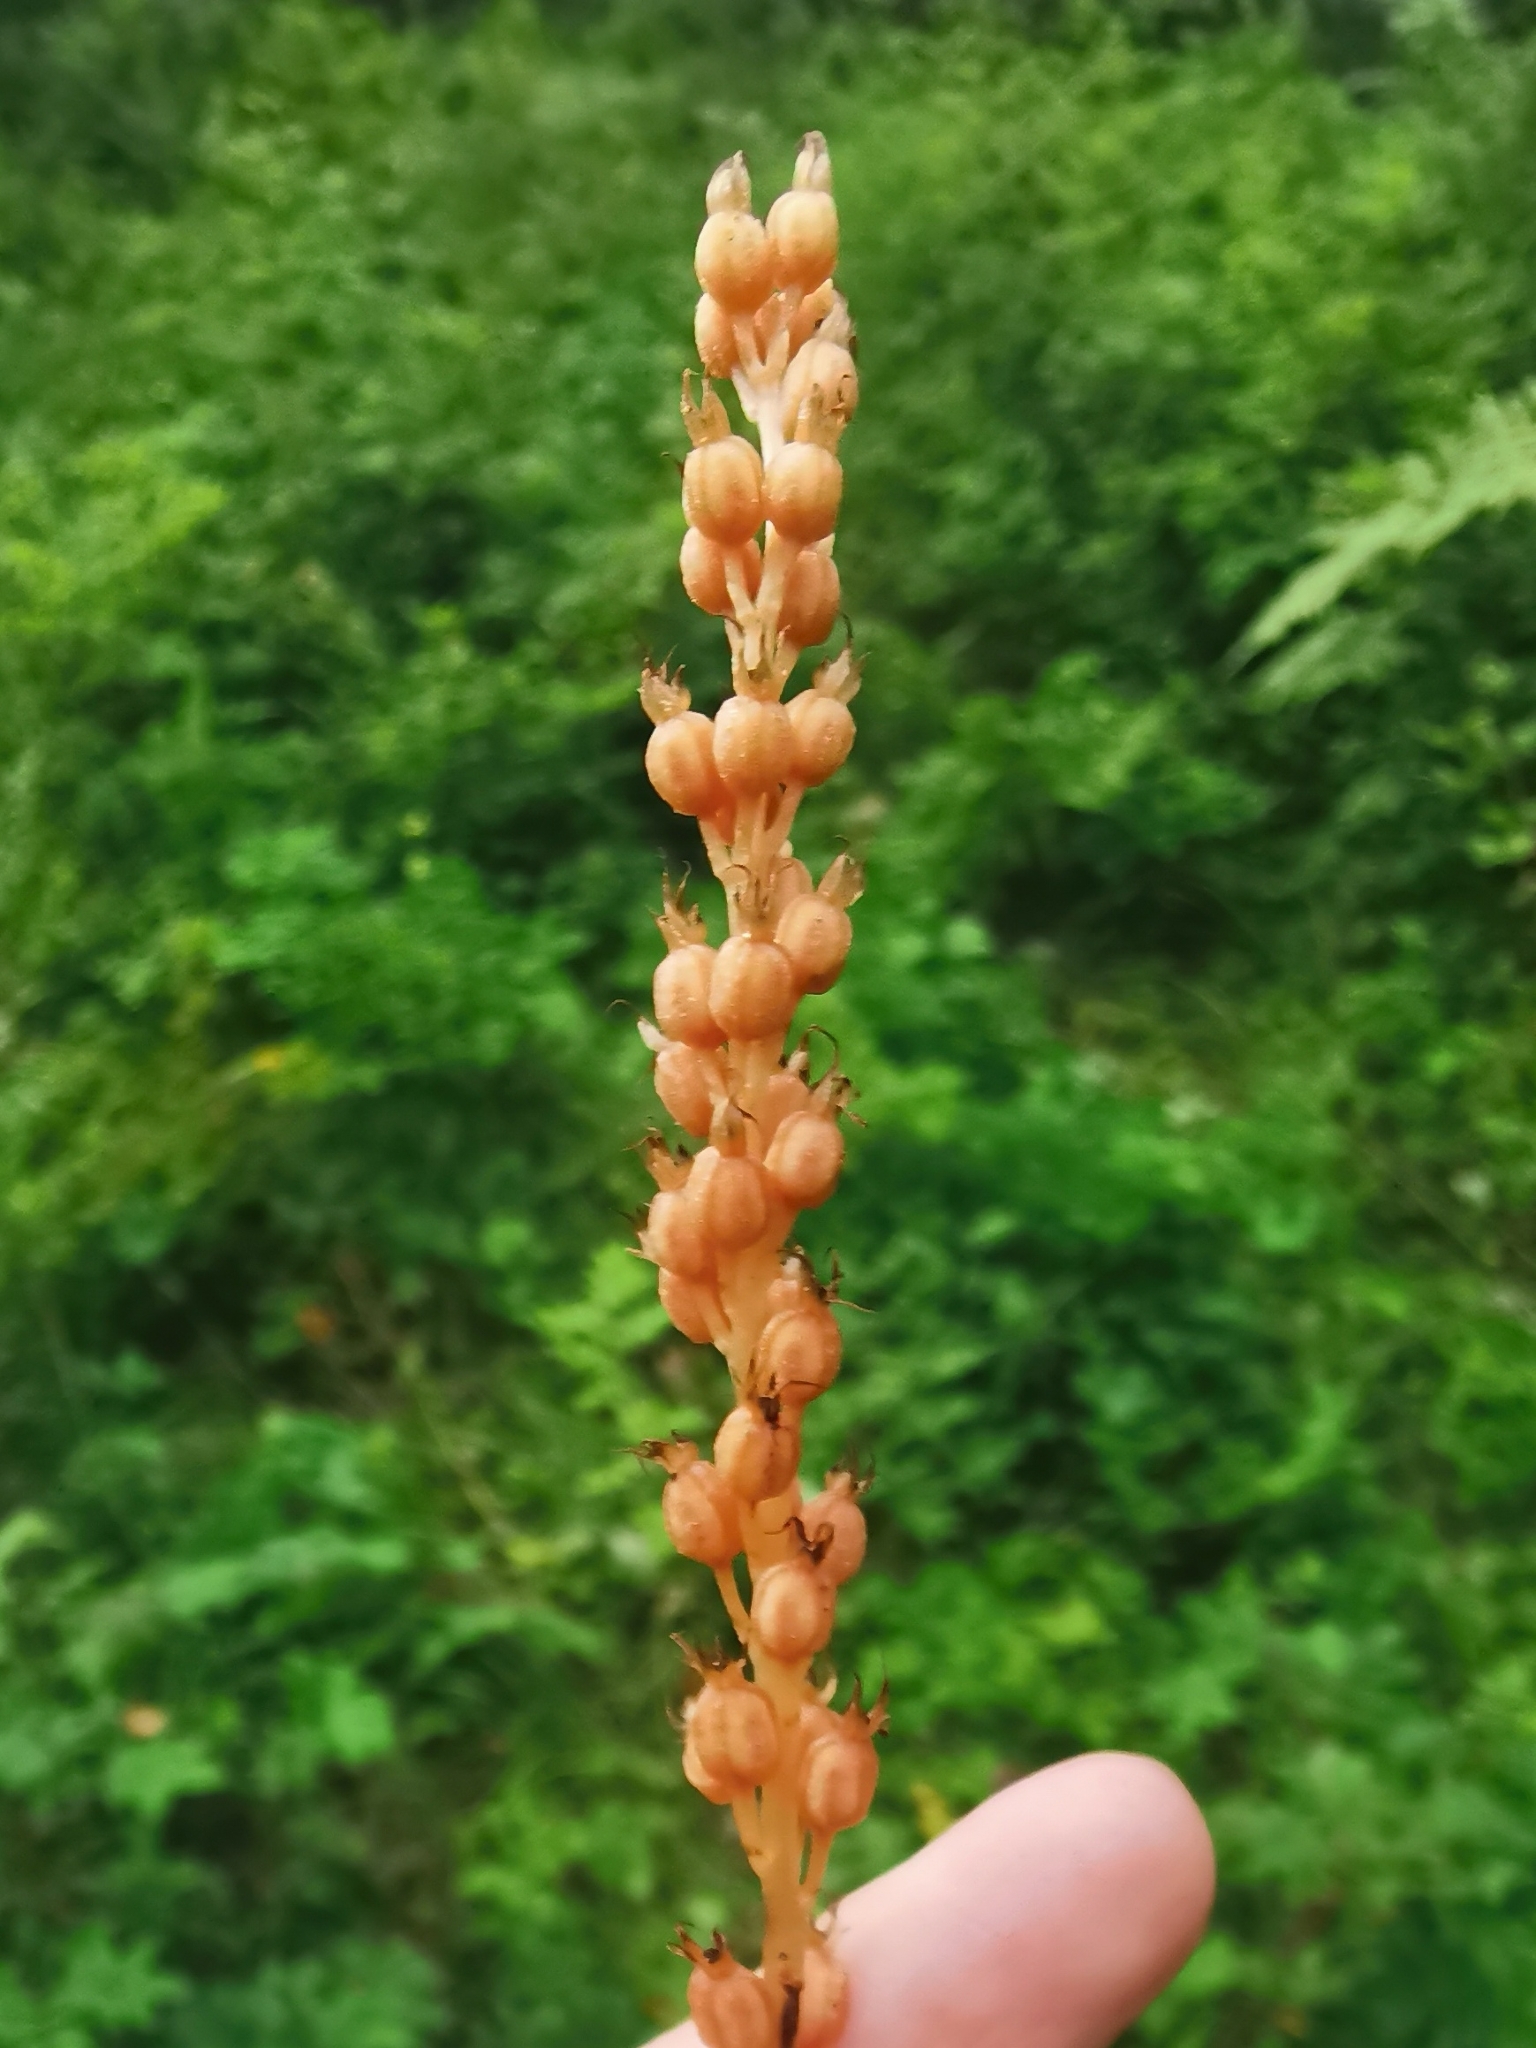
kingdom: Plantae
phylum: Tracheophyta
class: Liliopsida
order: Asparagales
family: Orchidaceae
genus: Neottia
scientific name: Neottia acuminata
